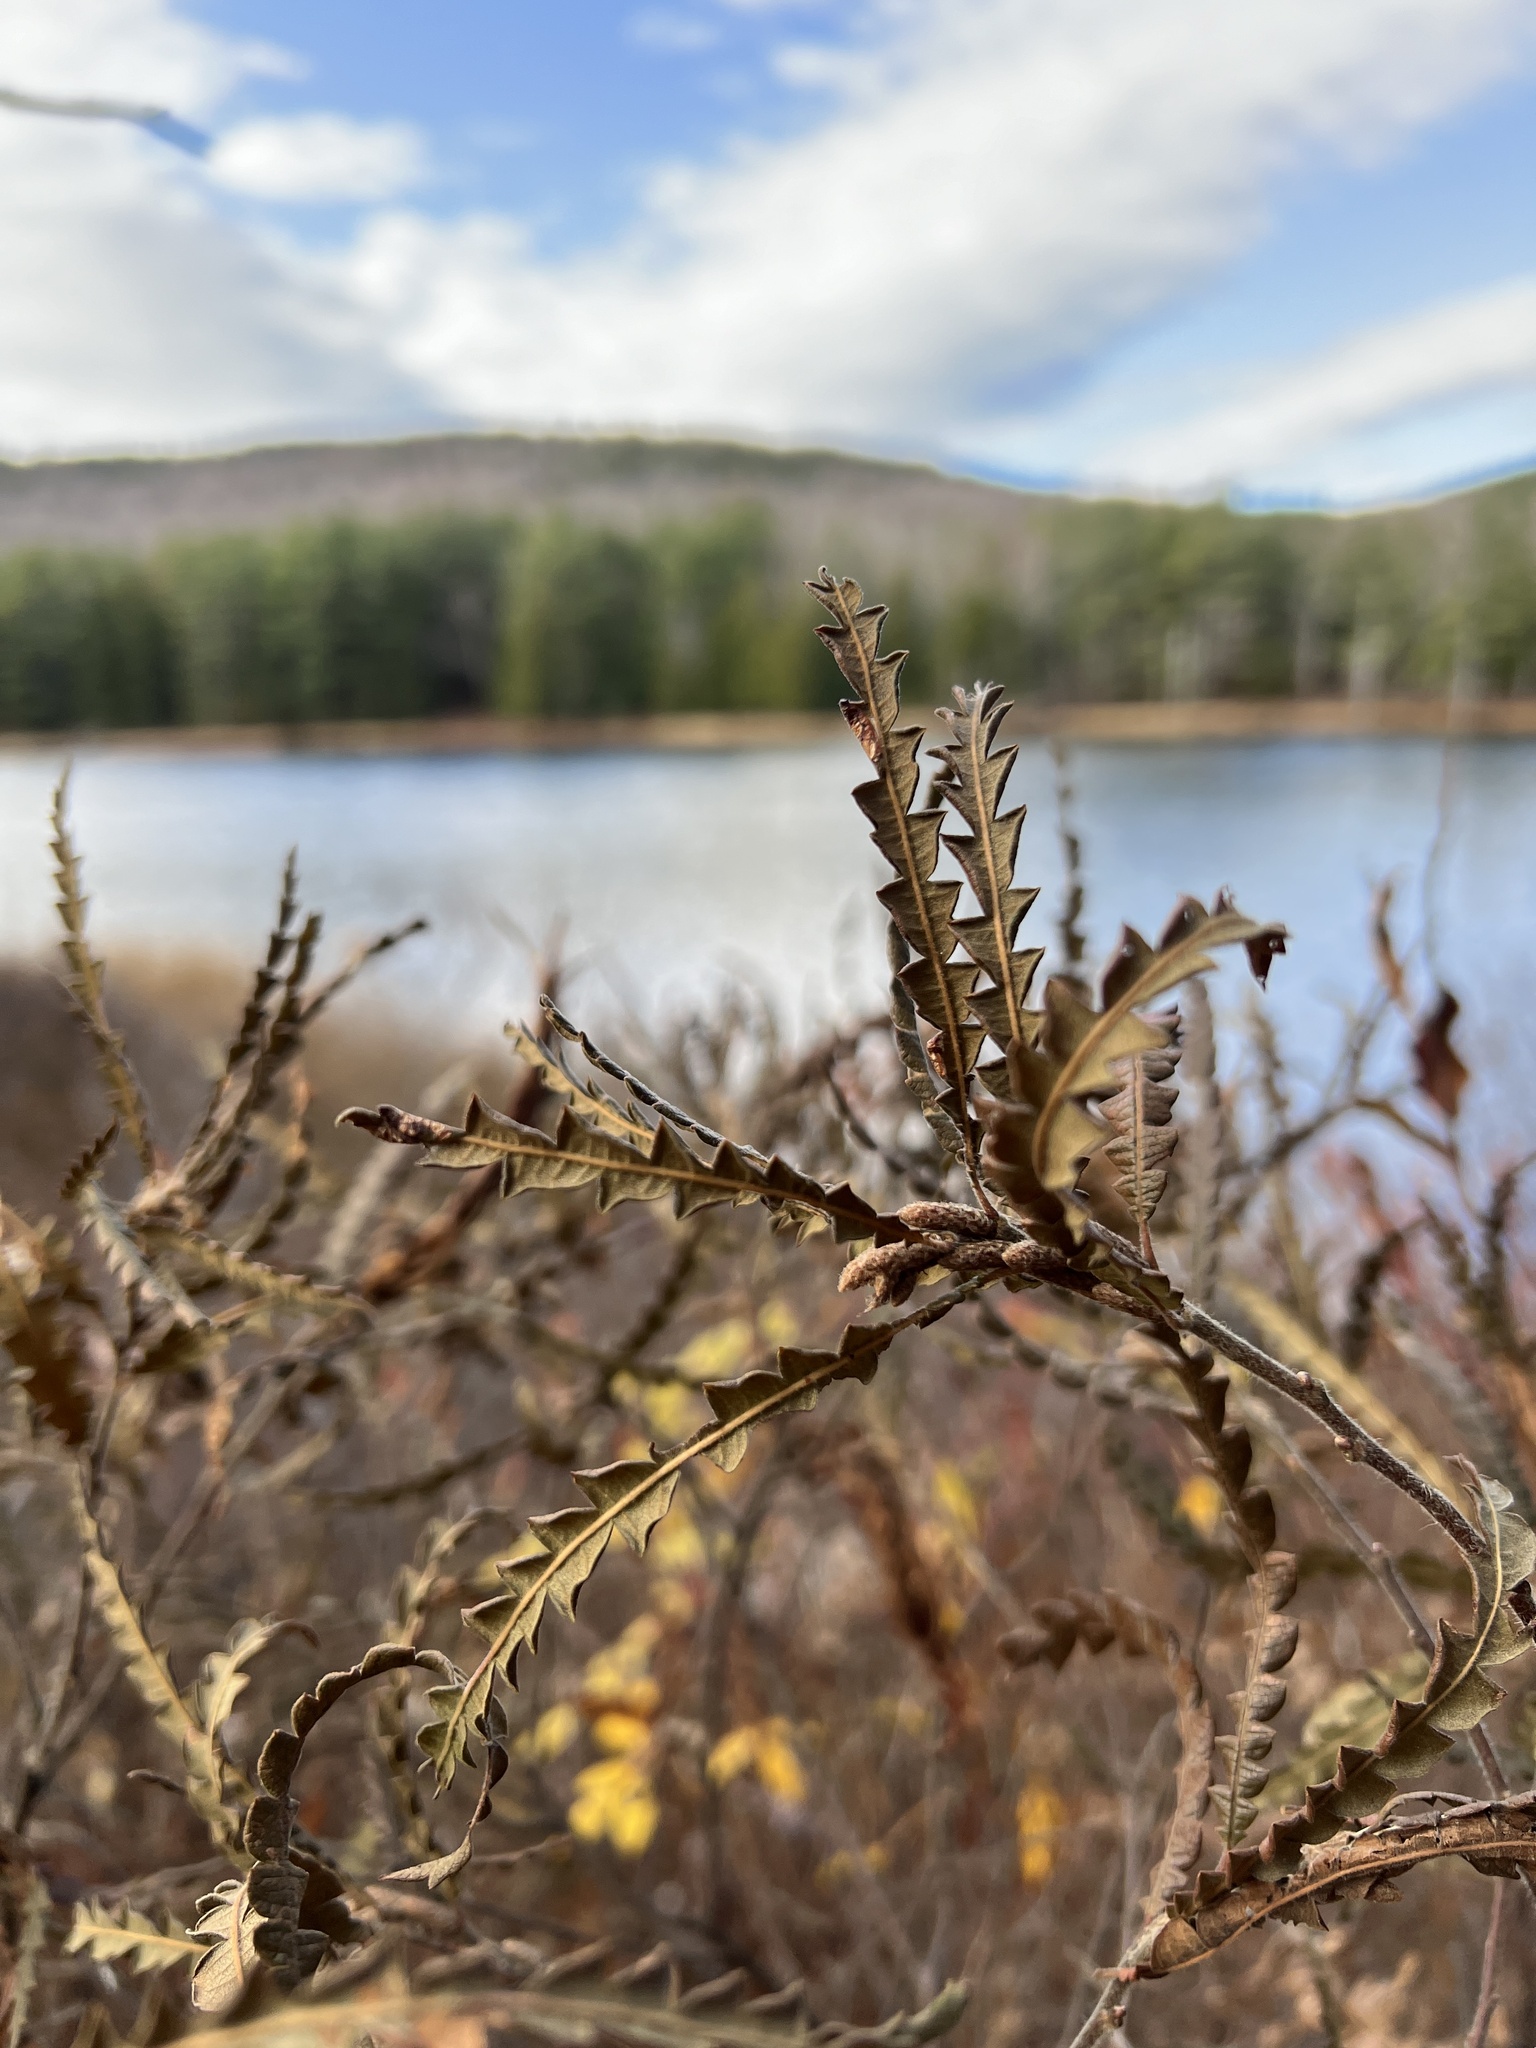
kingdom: Plantae
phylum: Tracheophyta
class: Magnoliopsida
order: Fagales
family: Myricaceae
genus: Comptonia
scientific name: Comptonia peregrina
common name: Sweet-fern
